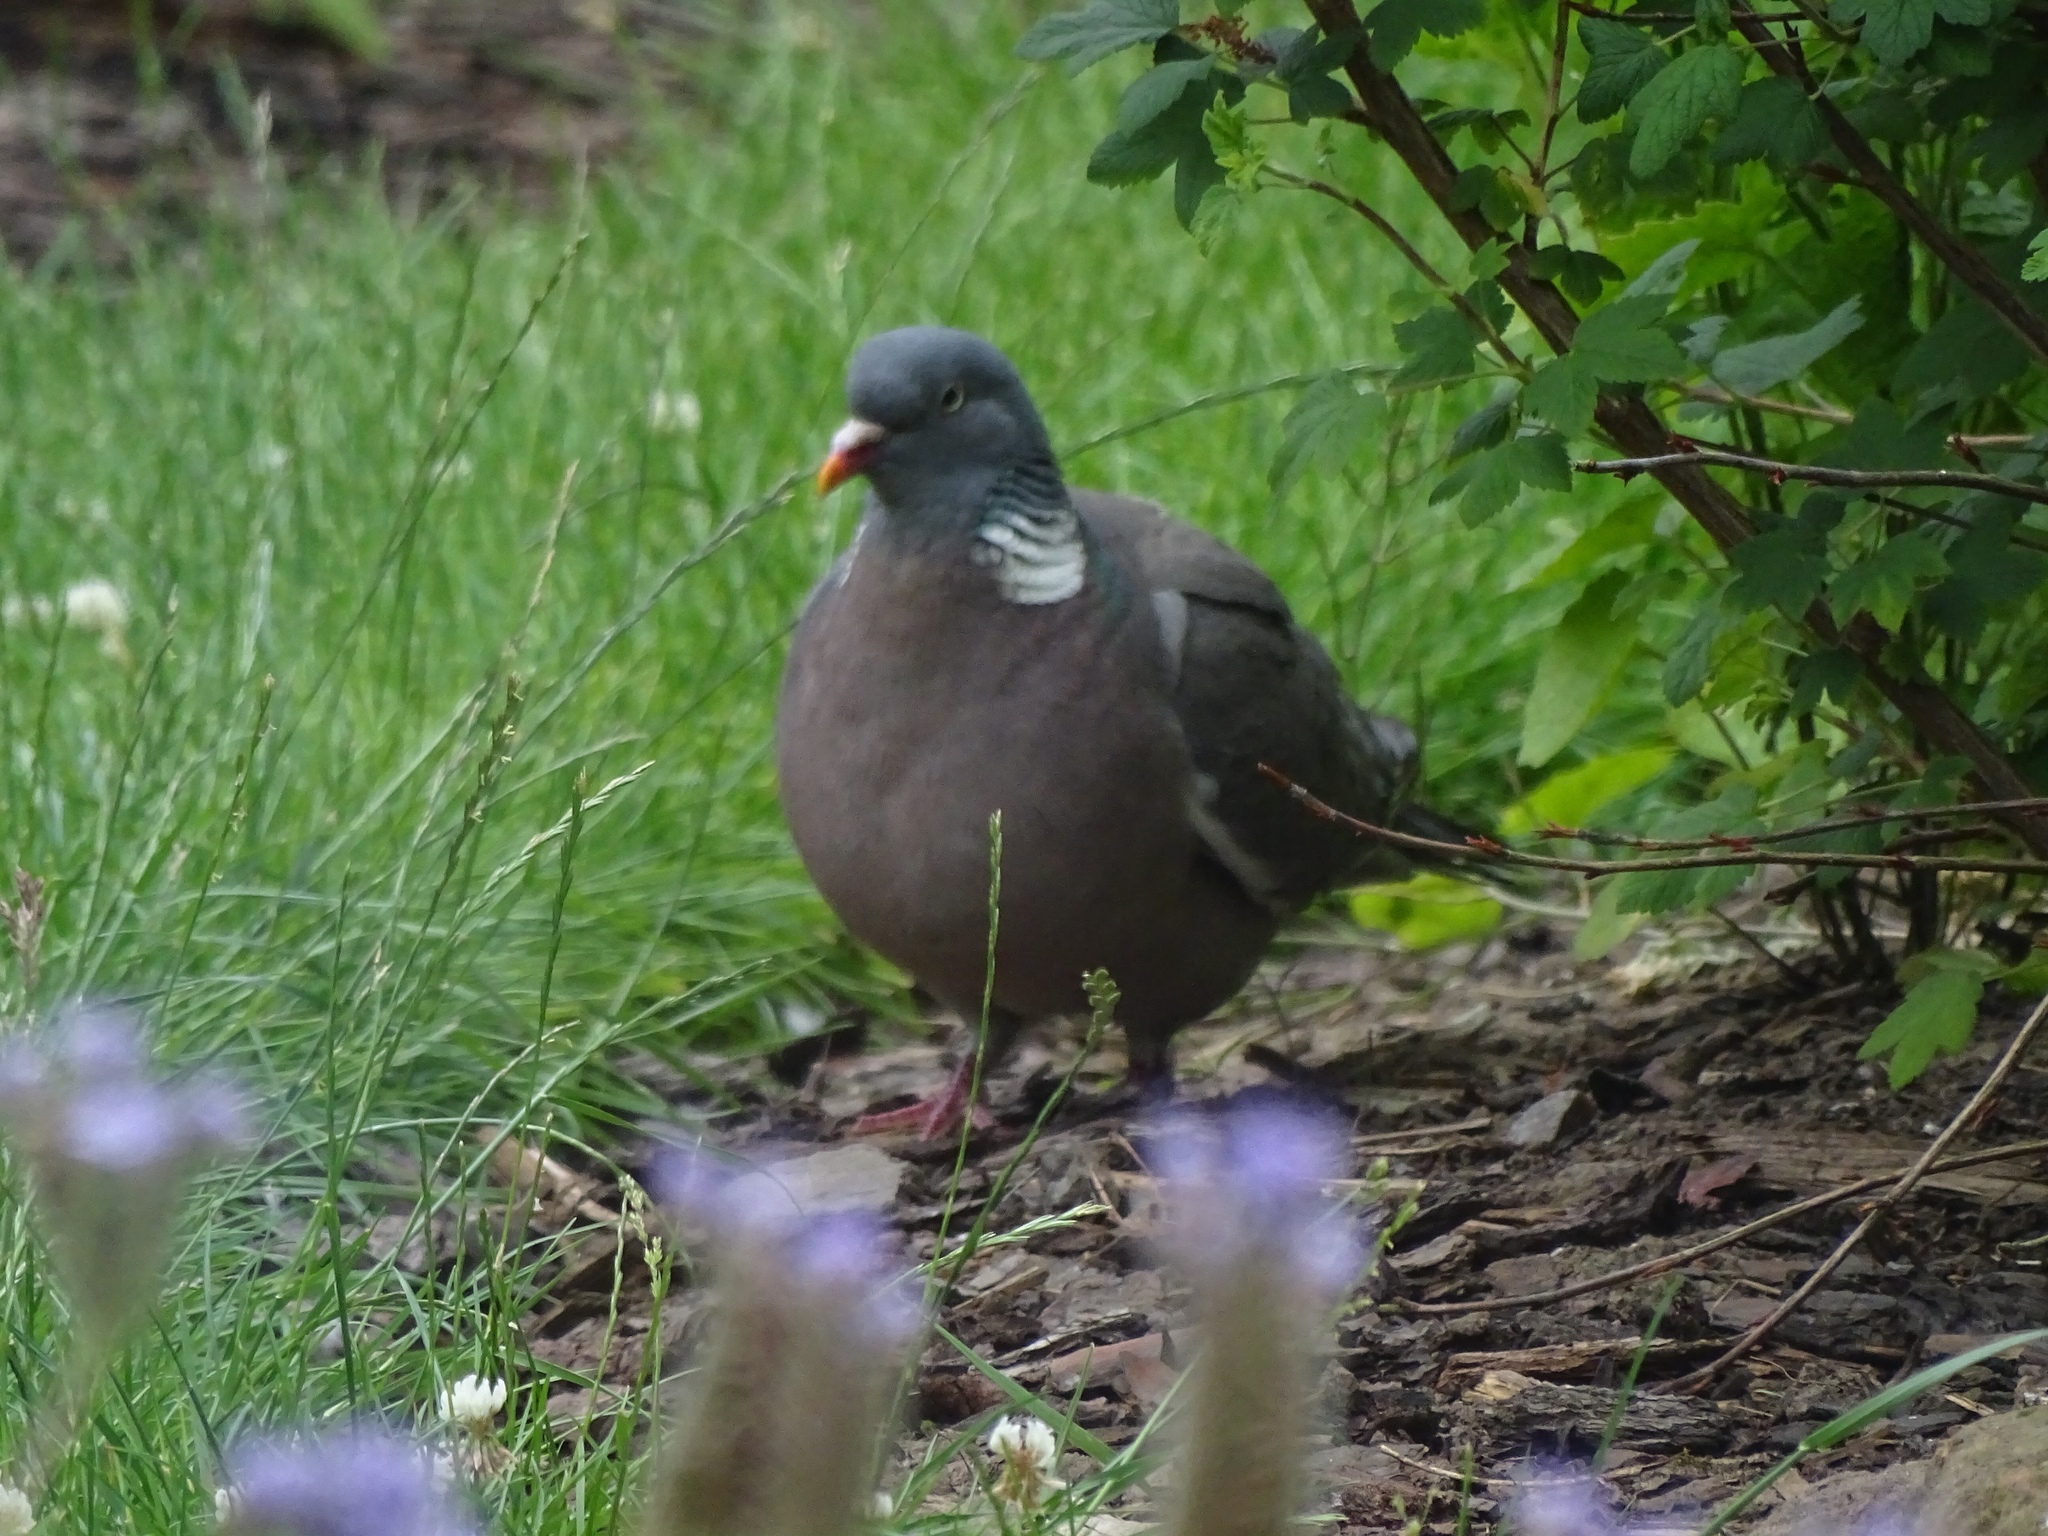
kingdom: Animalia
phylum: Chordata
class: Aves
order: Columbiformes
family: Columbidae
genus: Columba
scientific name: Columba palumbus
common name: Common wood pigeon
